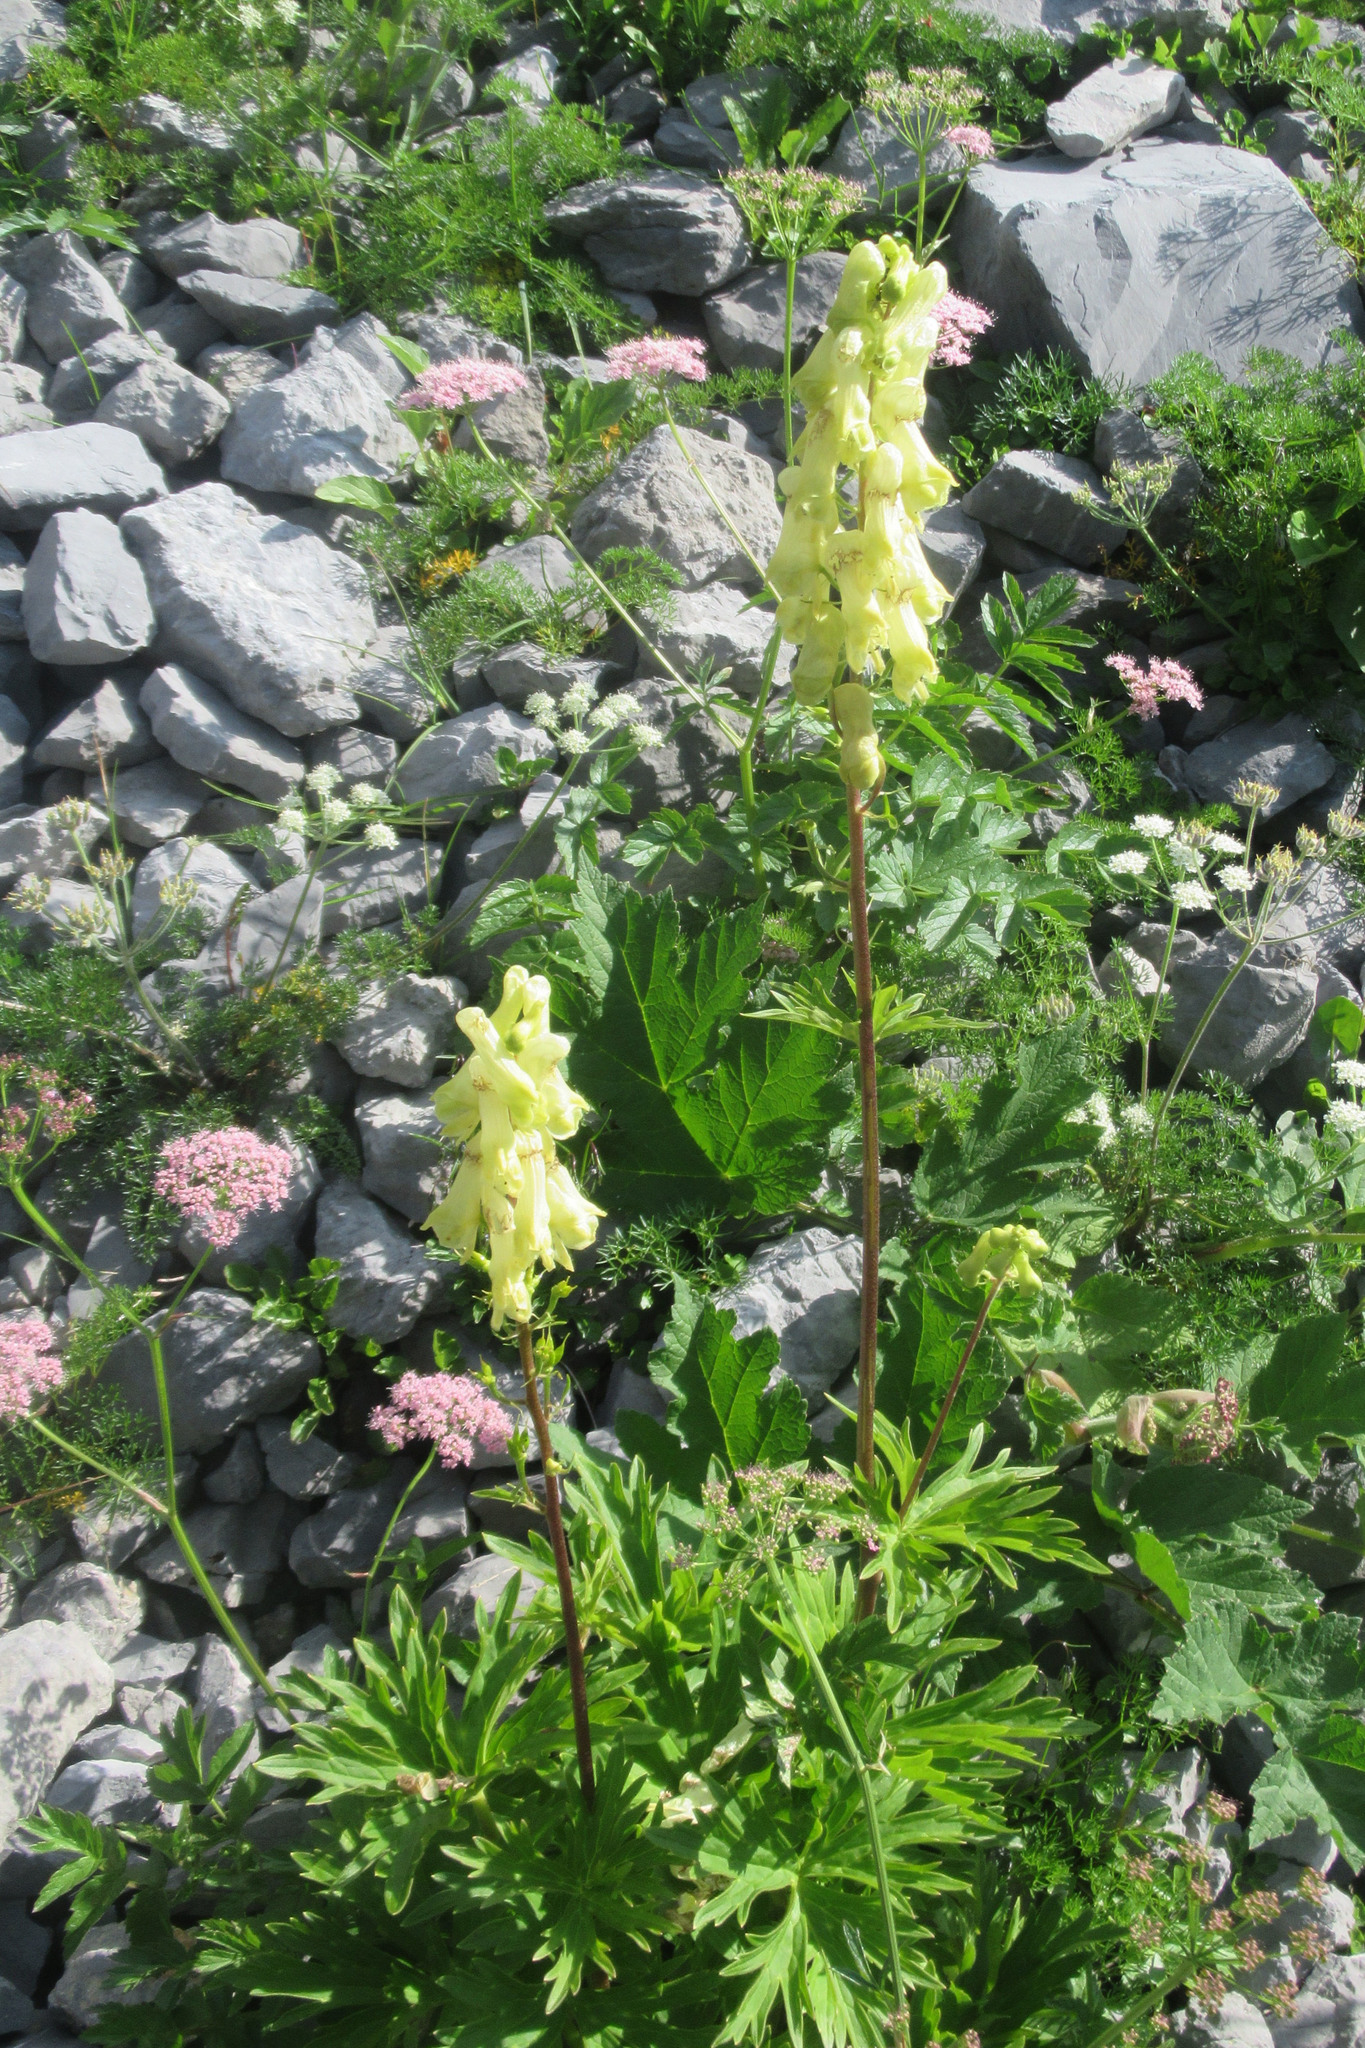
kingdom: Plantae
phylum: Tracheophyta
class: Magnoliopsida
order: Ranunculales
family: Ranunculaceae
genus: Aconitum
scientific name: Aconitum lycoctonum
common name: Wolf's-bane
